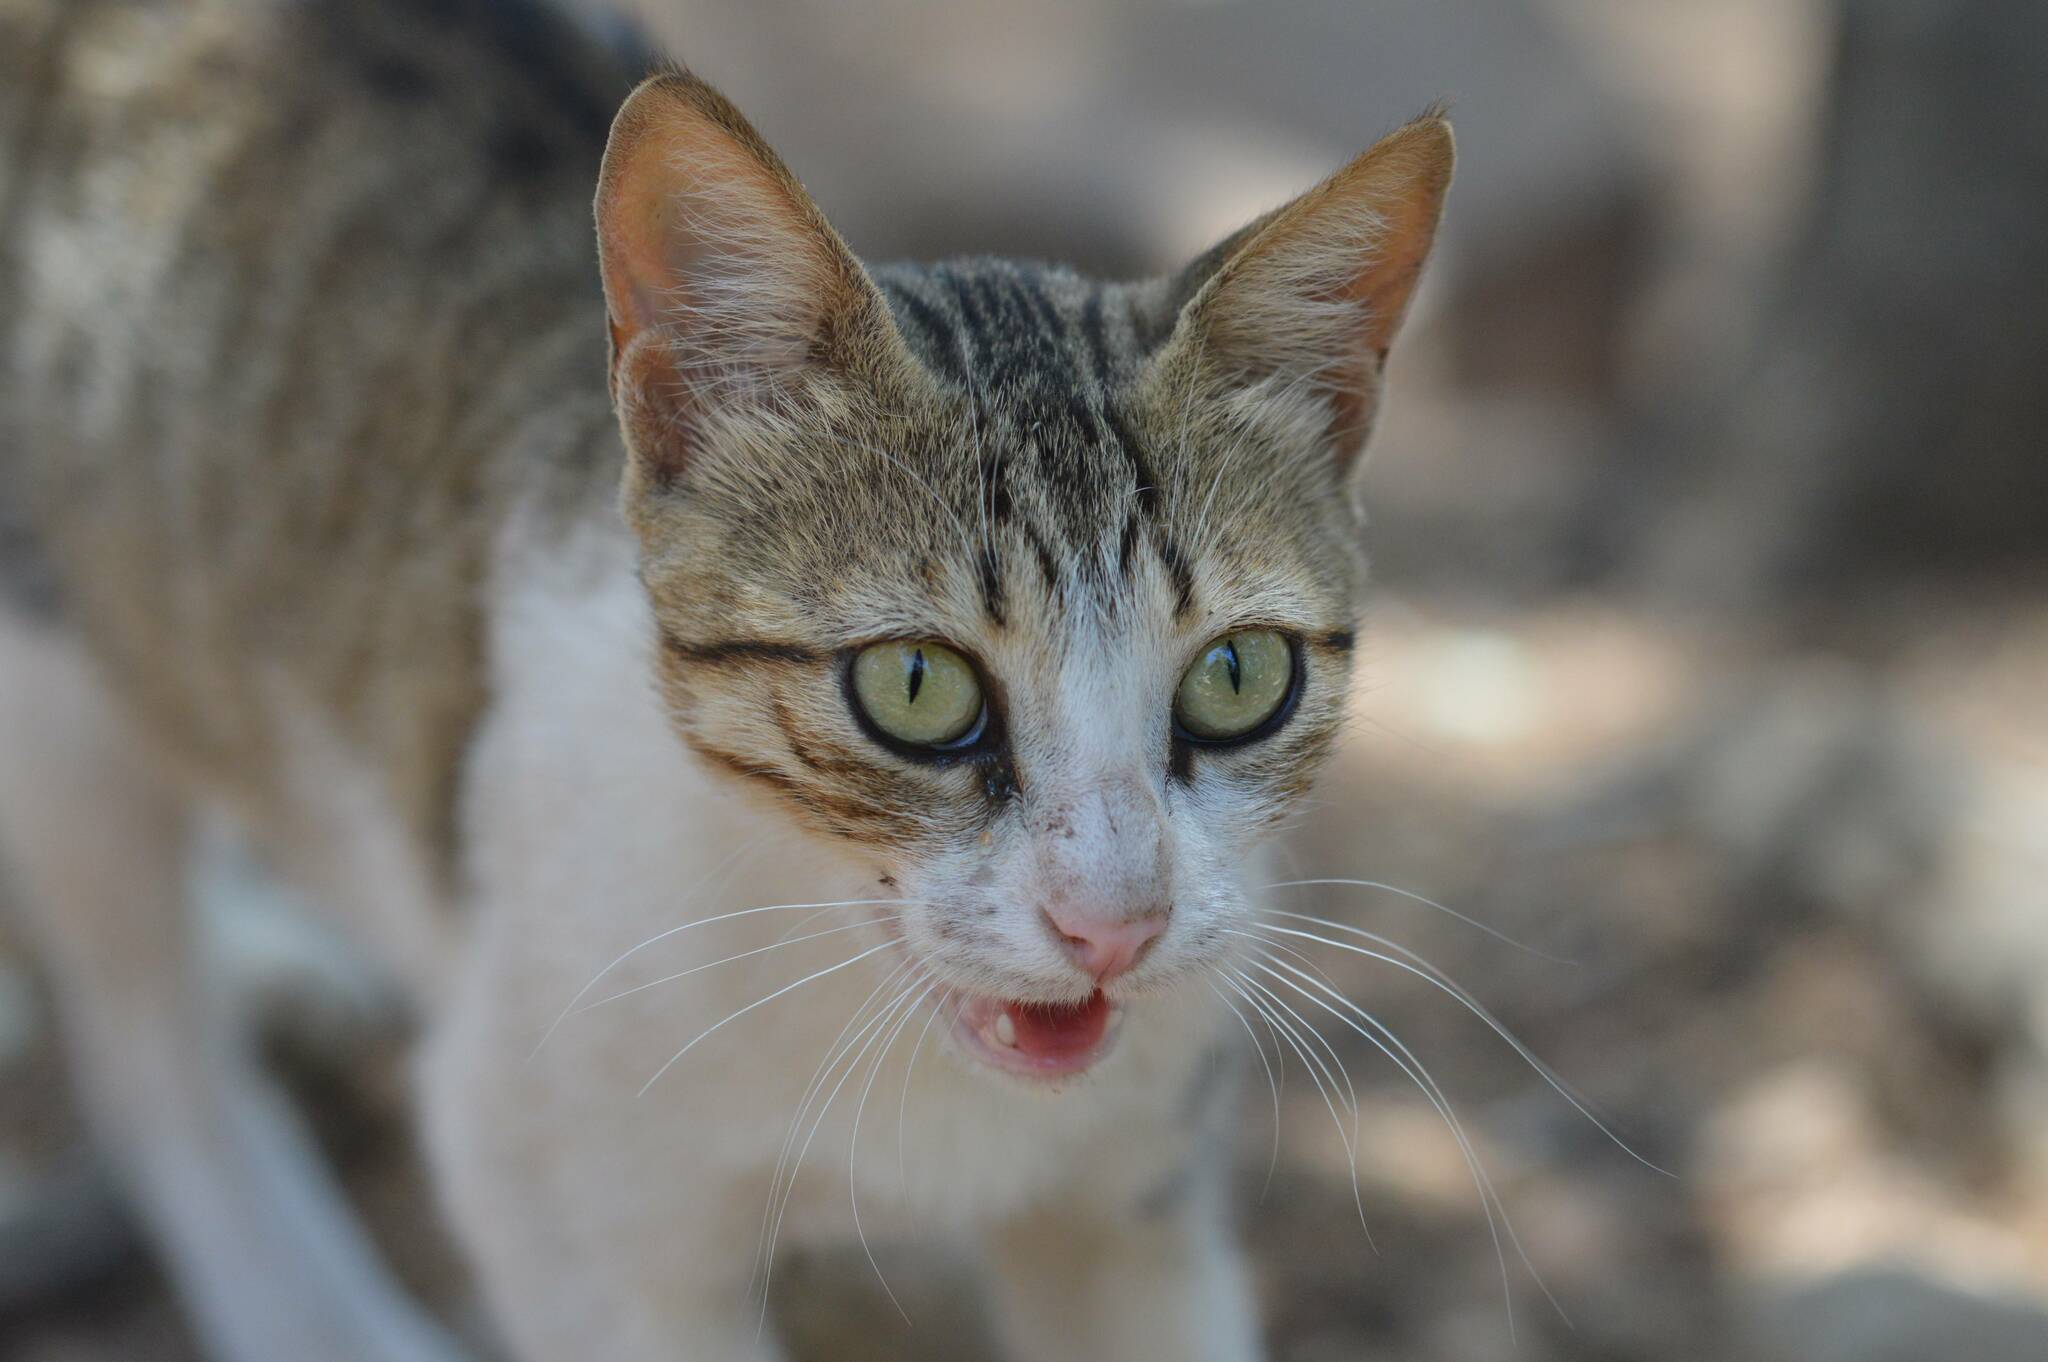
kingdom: Animalia
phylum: Chordata
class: Mammalia
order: Carnivora
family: Felidae
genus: Felis
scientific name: Felis catus
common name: Domestic cat
